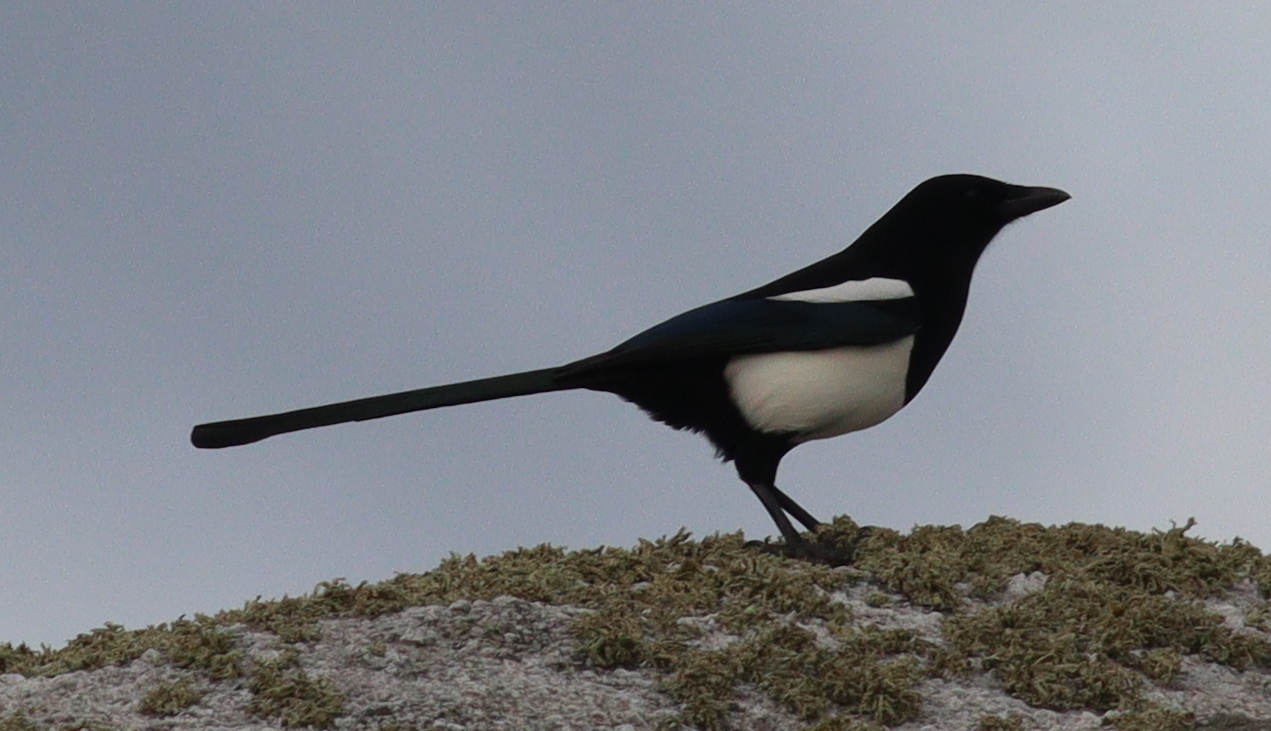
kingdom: Animalia
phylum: Chordata
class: Aves
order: Passeriformes
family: Corvidae
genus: Pica
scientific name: Pica pica
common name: Eurasian magpie
